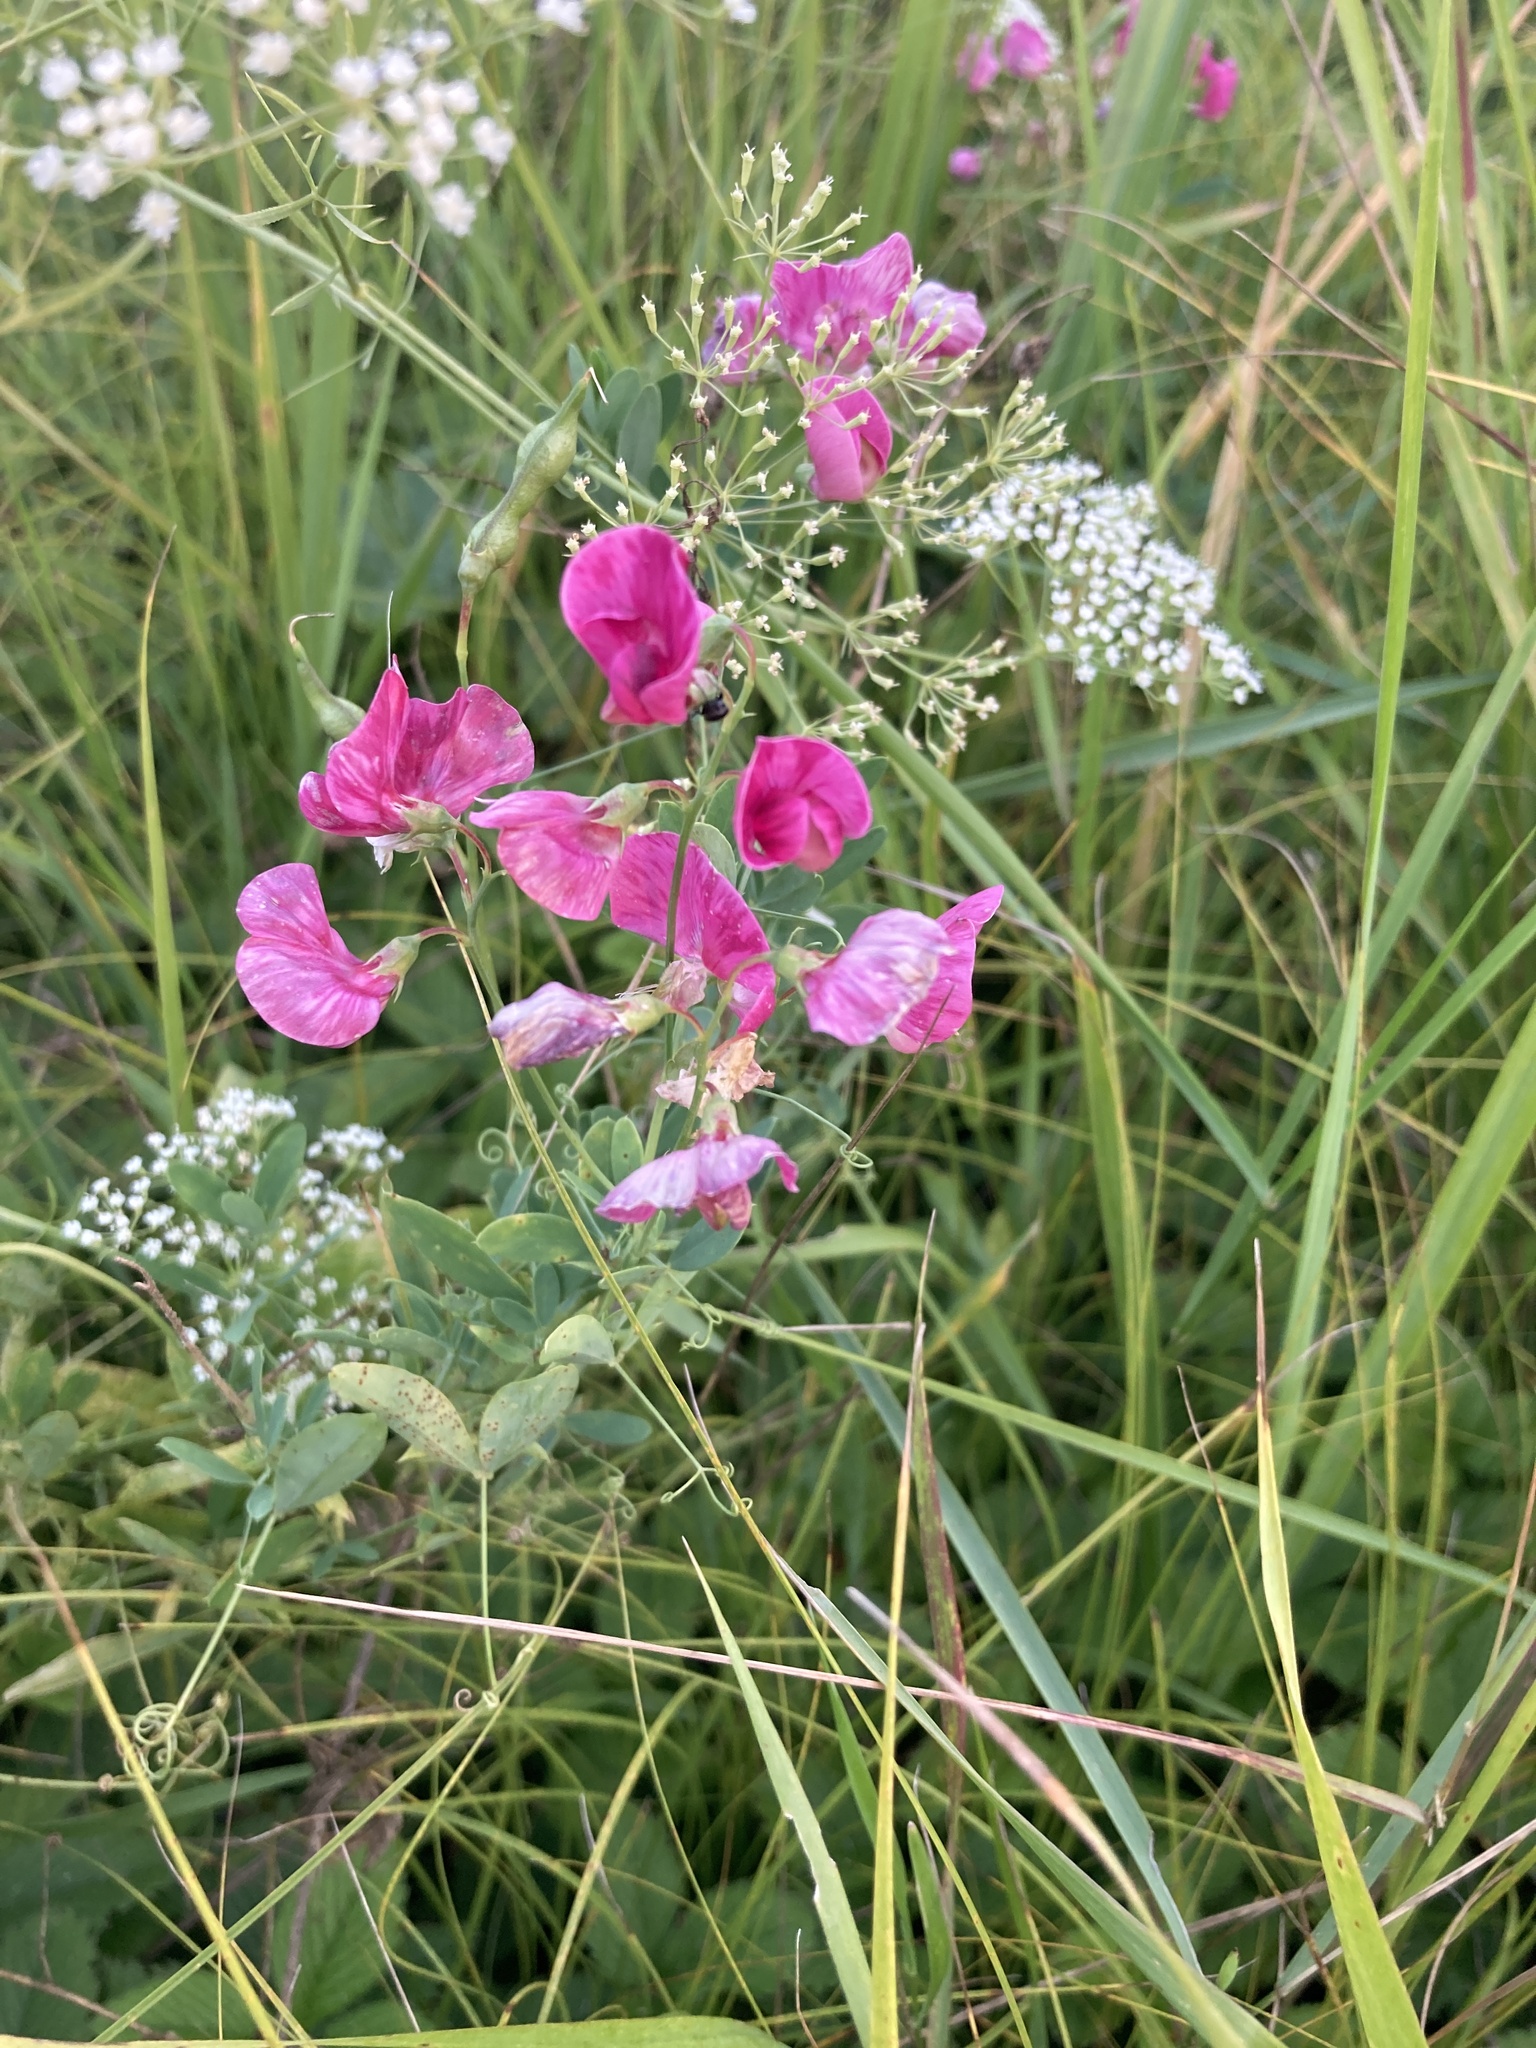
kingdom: Plantae
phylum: Tracheophyta
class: Magnoliopsida
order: Fabales
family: Fabaceae
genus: Lathyrus
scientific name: Lathyrus tuberosus
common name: Tuberous pea
